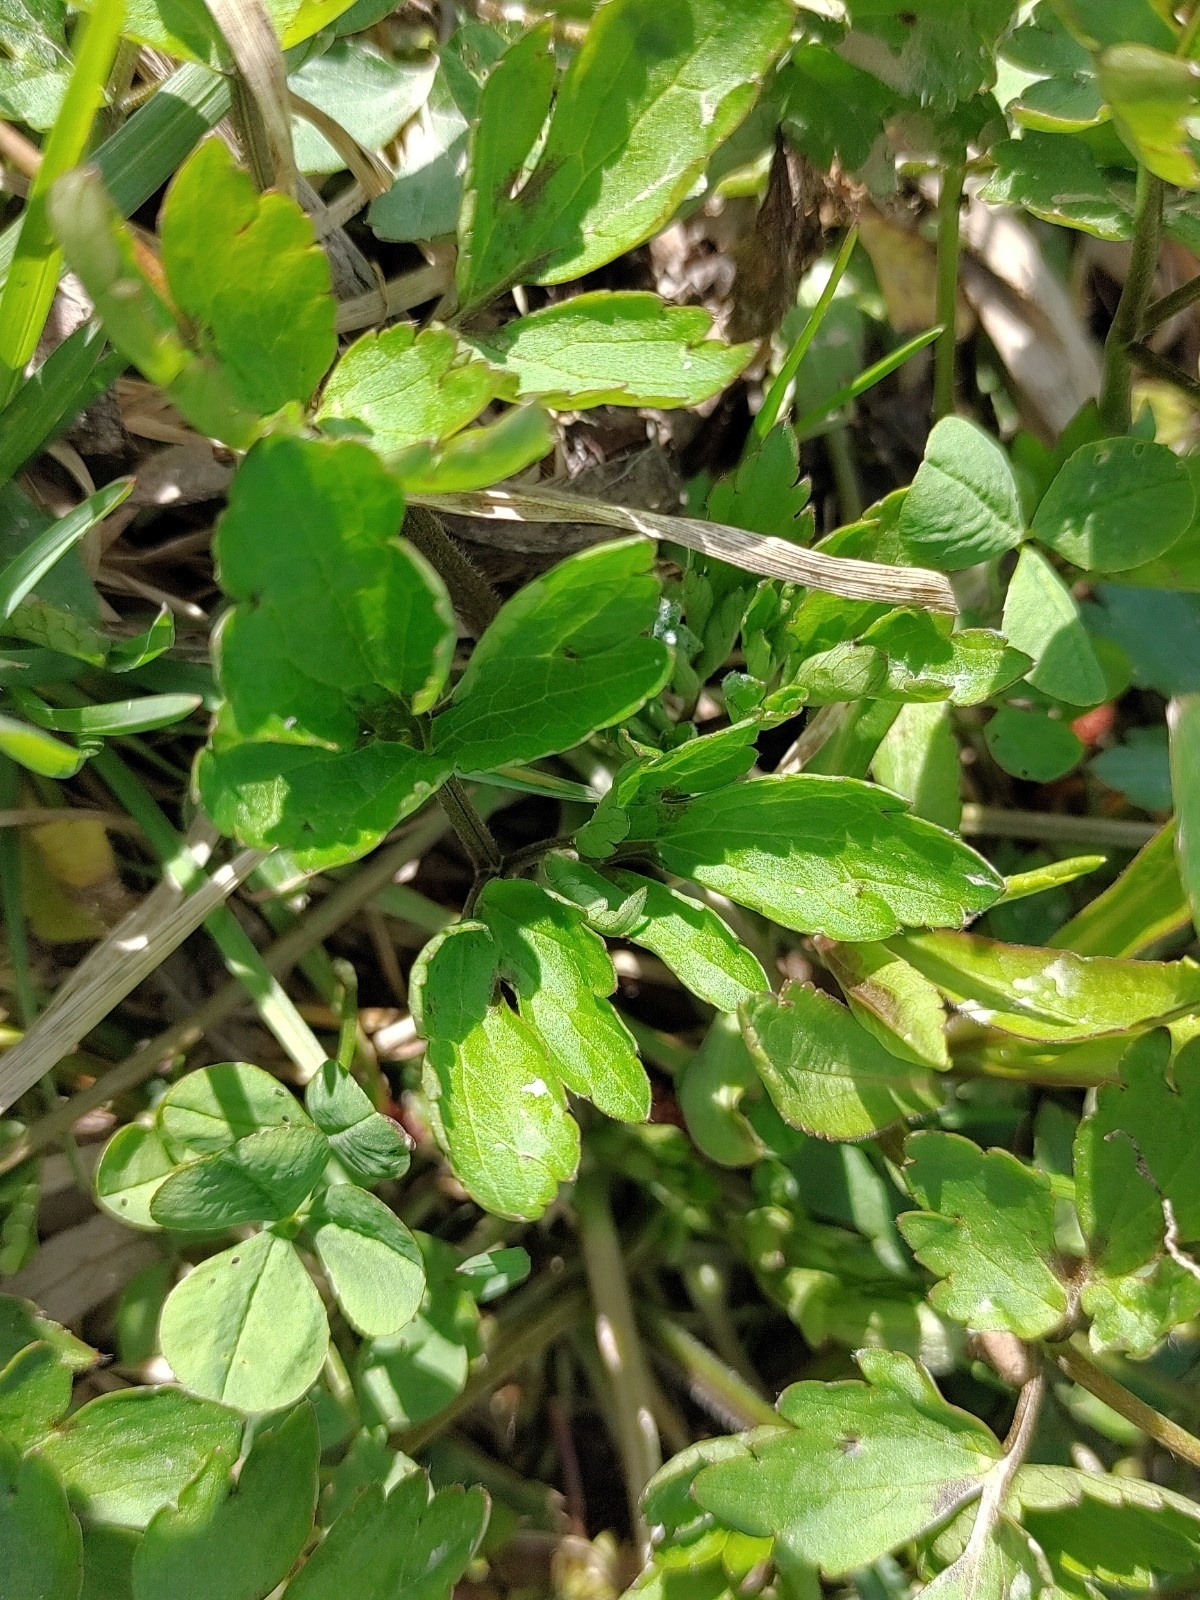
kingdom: Plantae
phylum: Tracheophyta
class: Magnoliopsida
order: Ranunculales
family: Ranunculaceae
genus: Ranunculus
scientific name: Ranunculus repens
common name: Creeping buttercup
